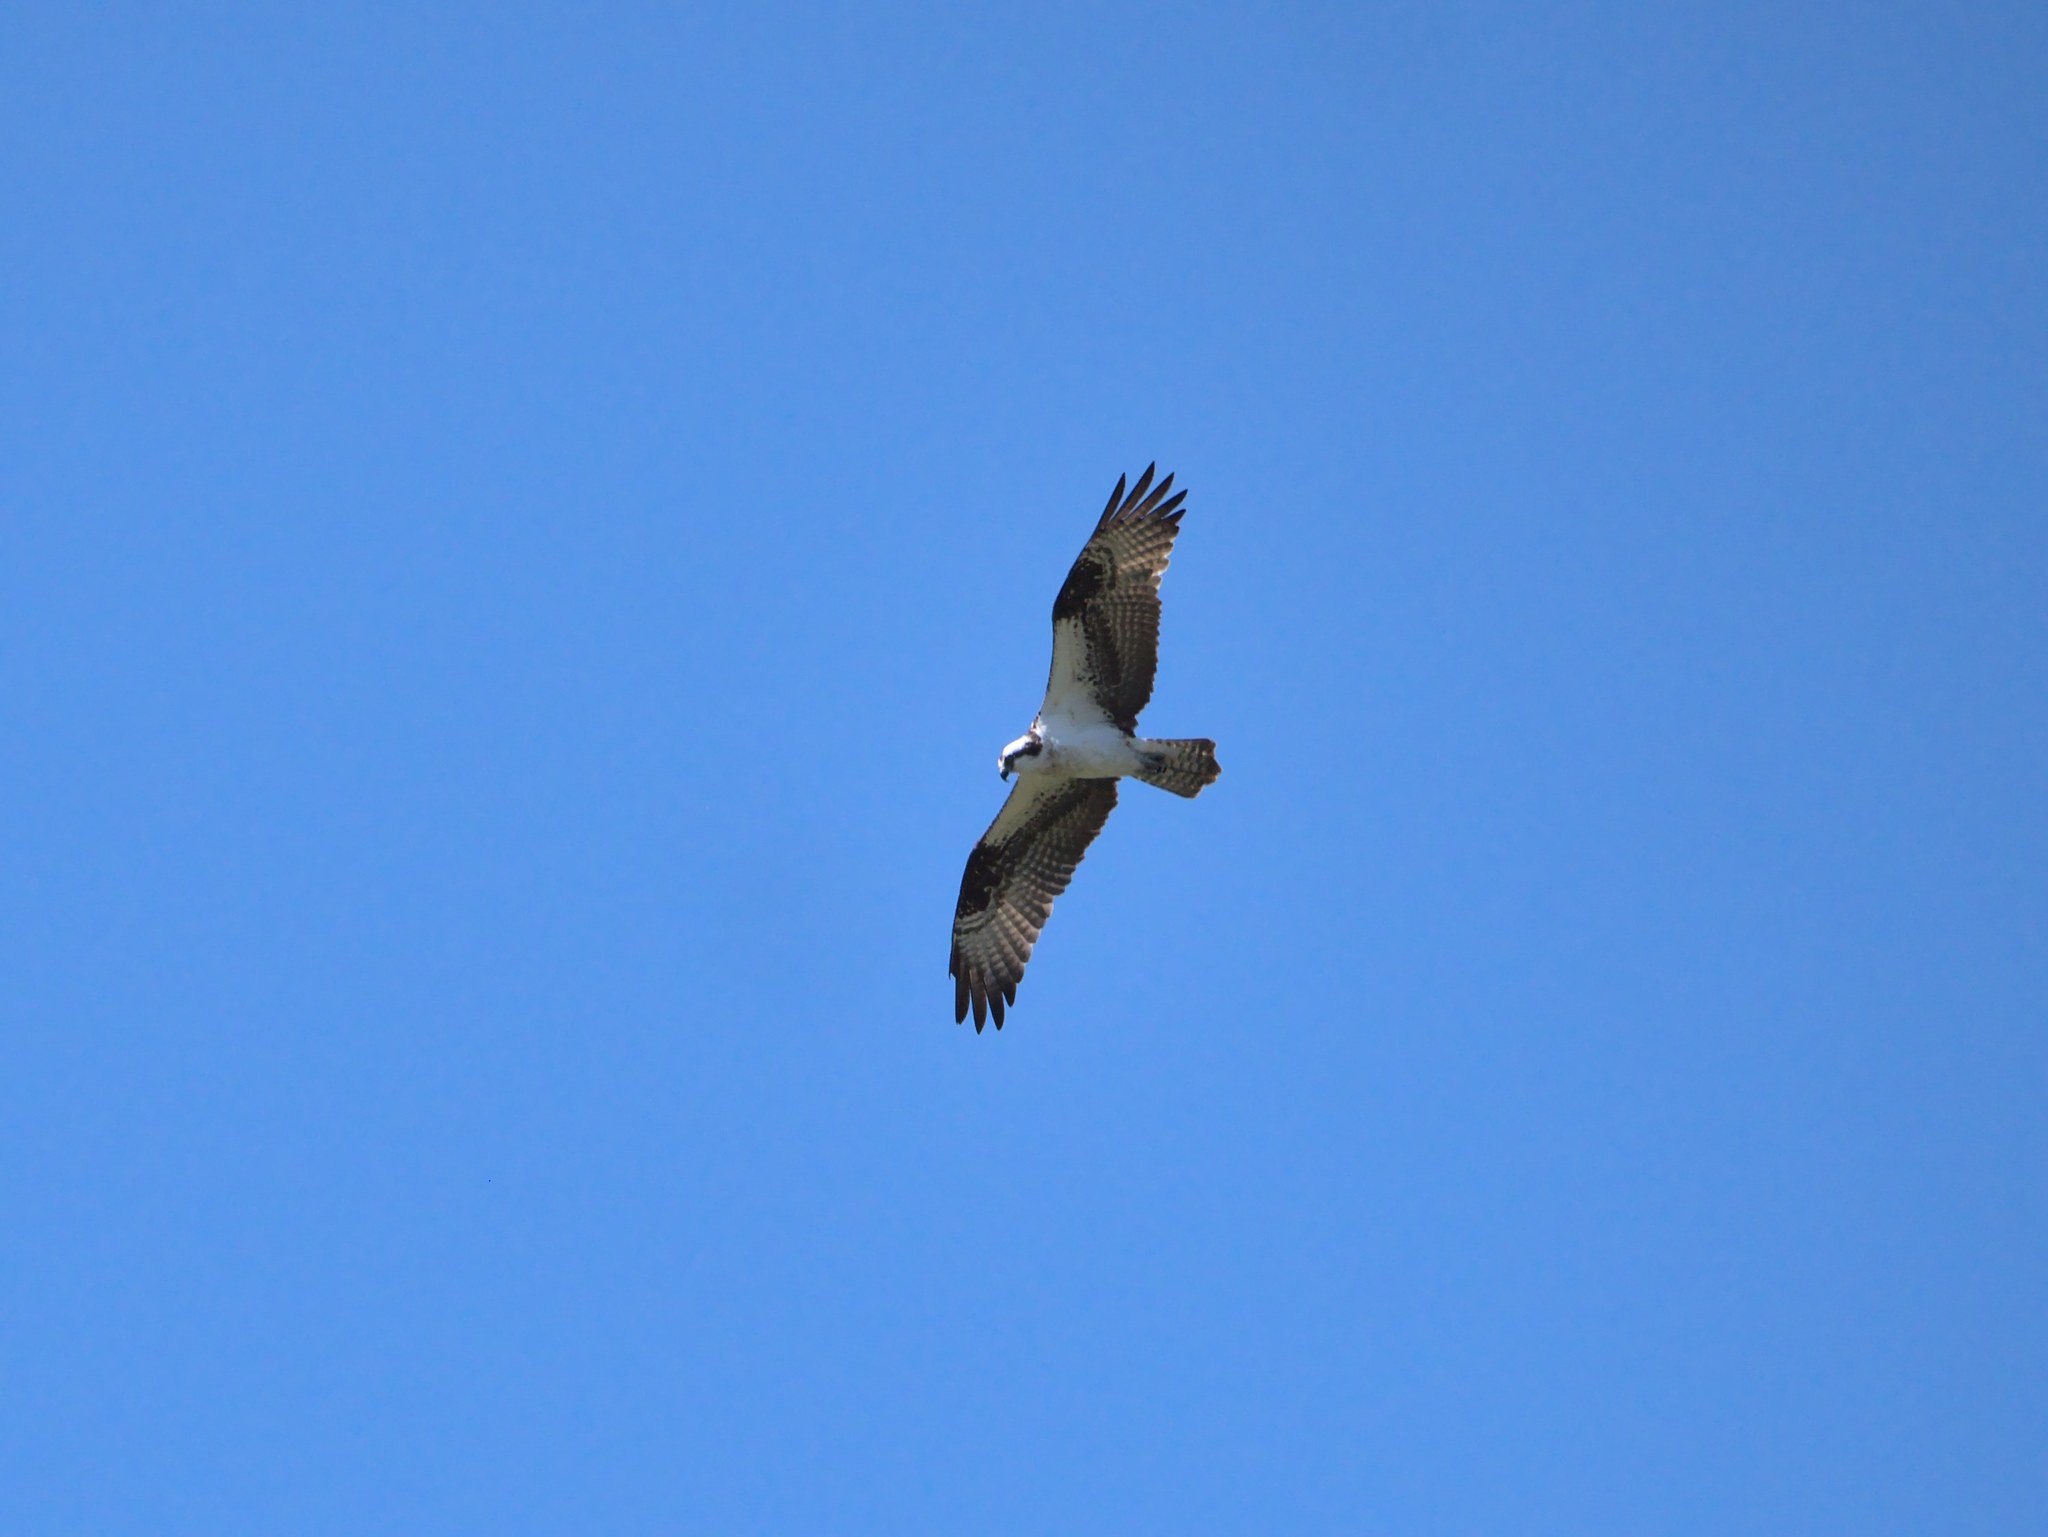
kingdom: Animalia
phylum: Chordata
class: Aves
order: Accipitriformes
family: Pandionidae
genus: Pandion
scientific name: Pandion haliaetus
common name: Osprey
